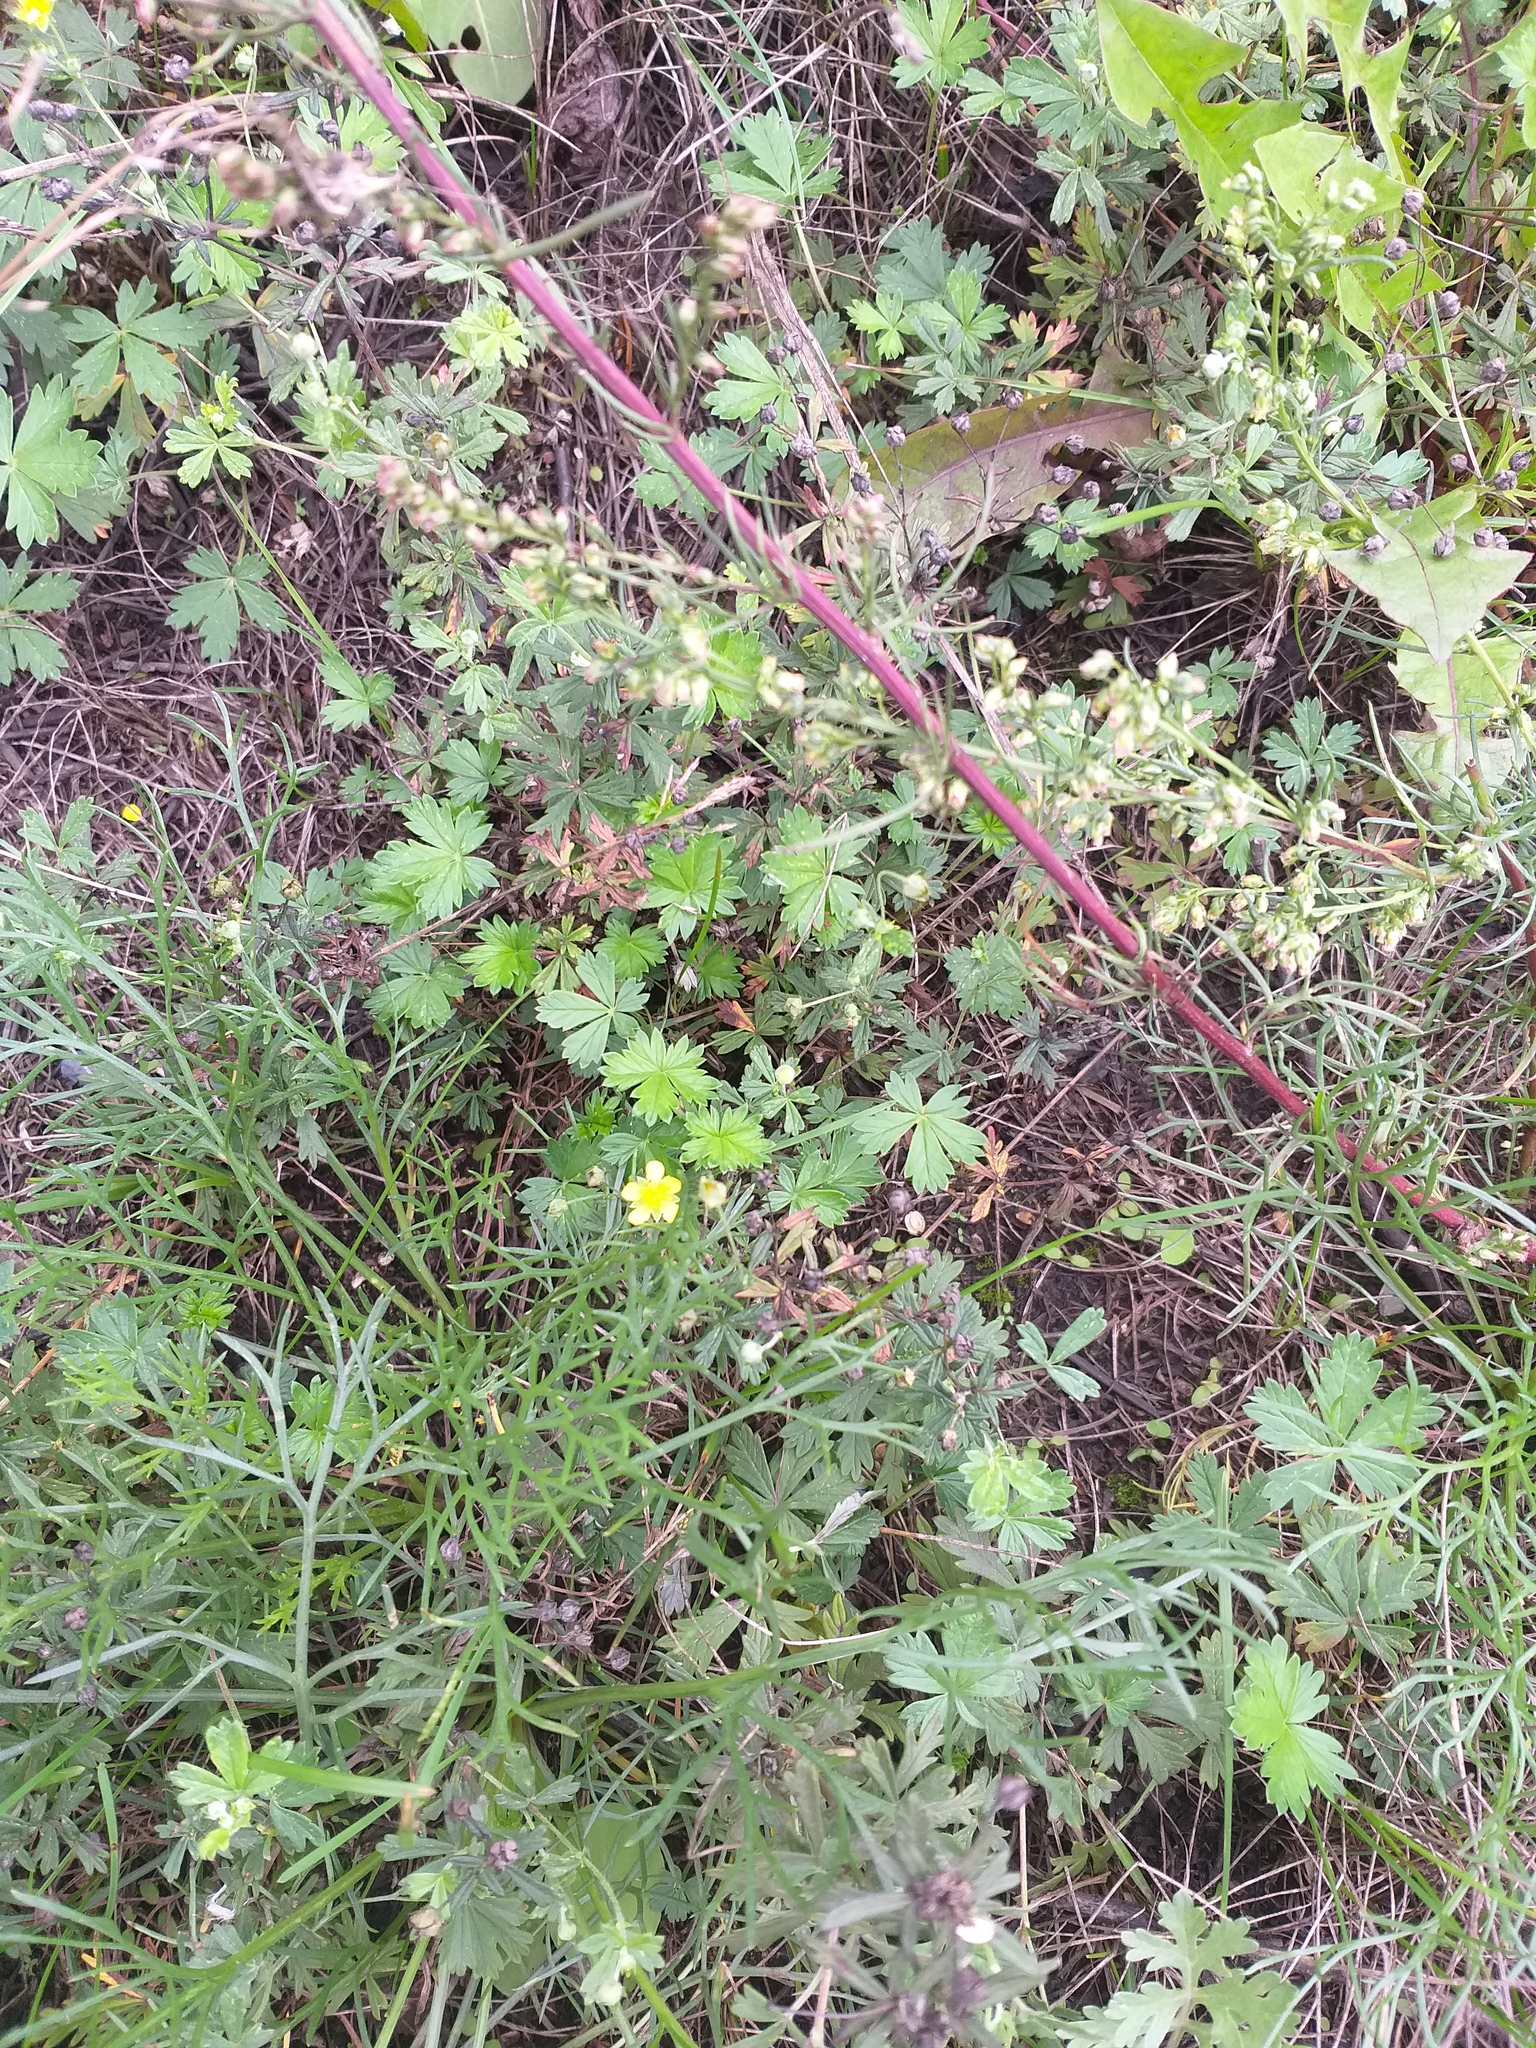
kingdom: Plantae
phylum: Tracheophyta
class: Magnoliopsida
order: Rosales
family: Rosaceae
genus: Potentilla
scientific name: Potentilla argentea
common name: Hoary cinquefoil
